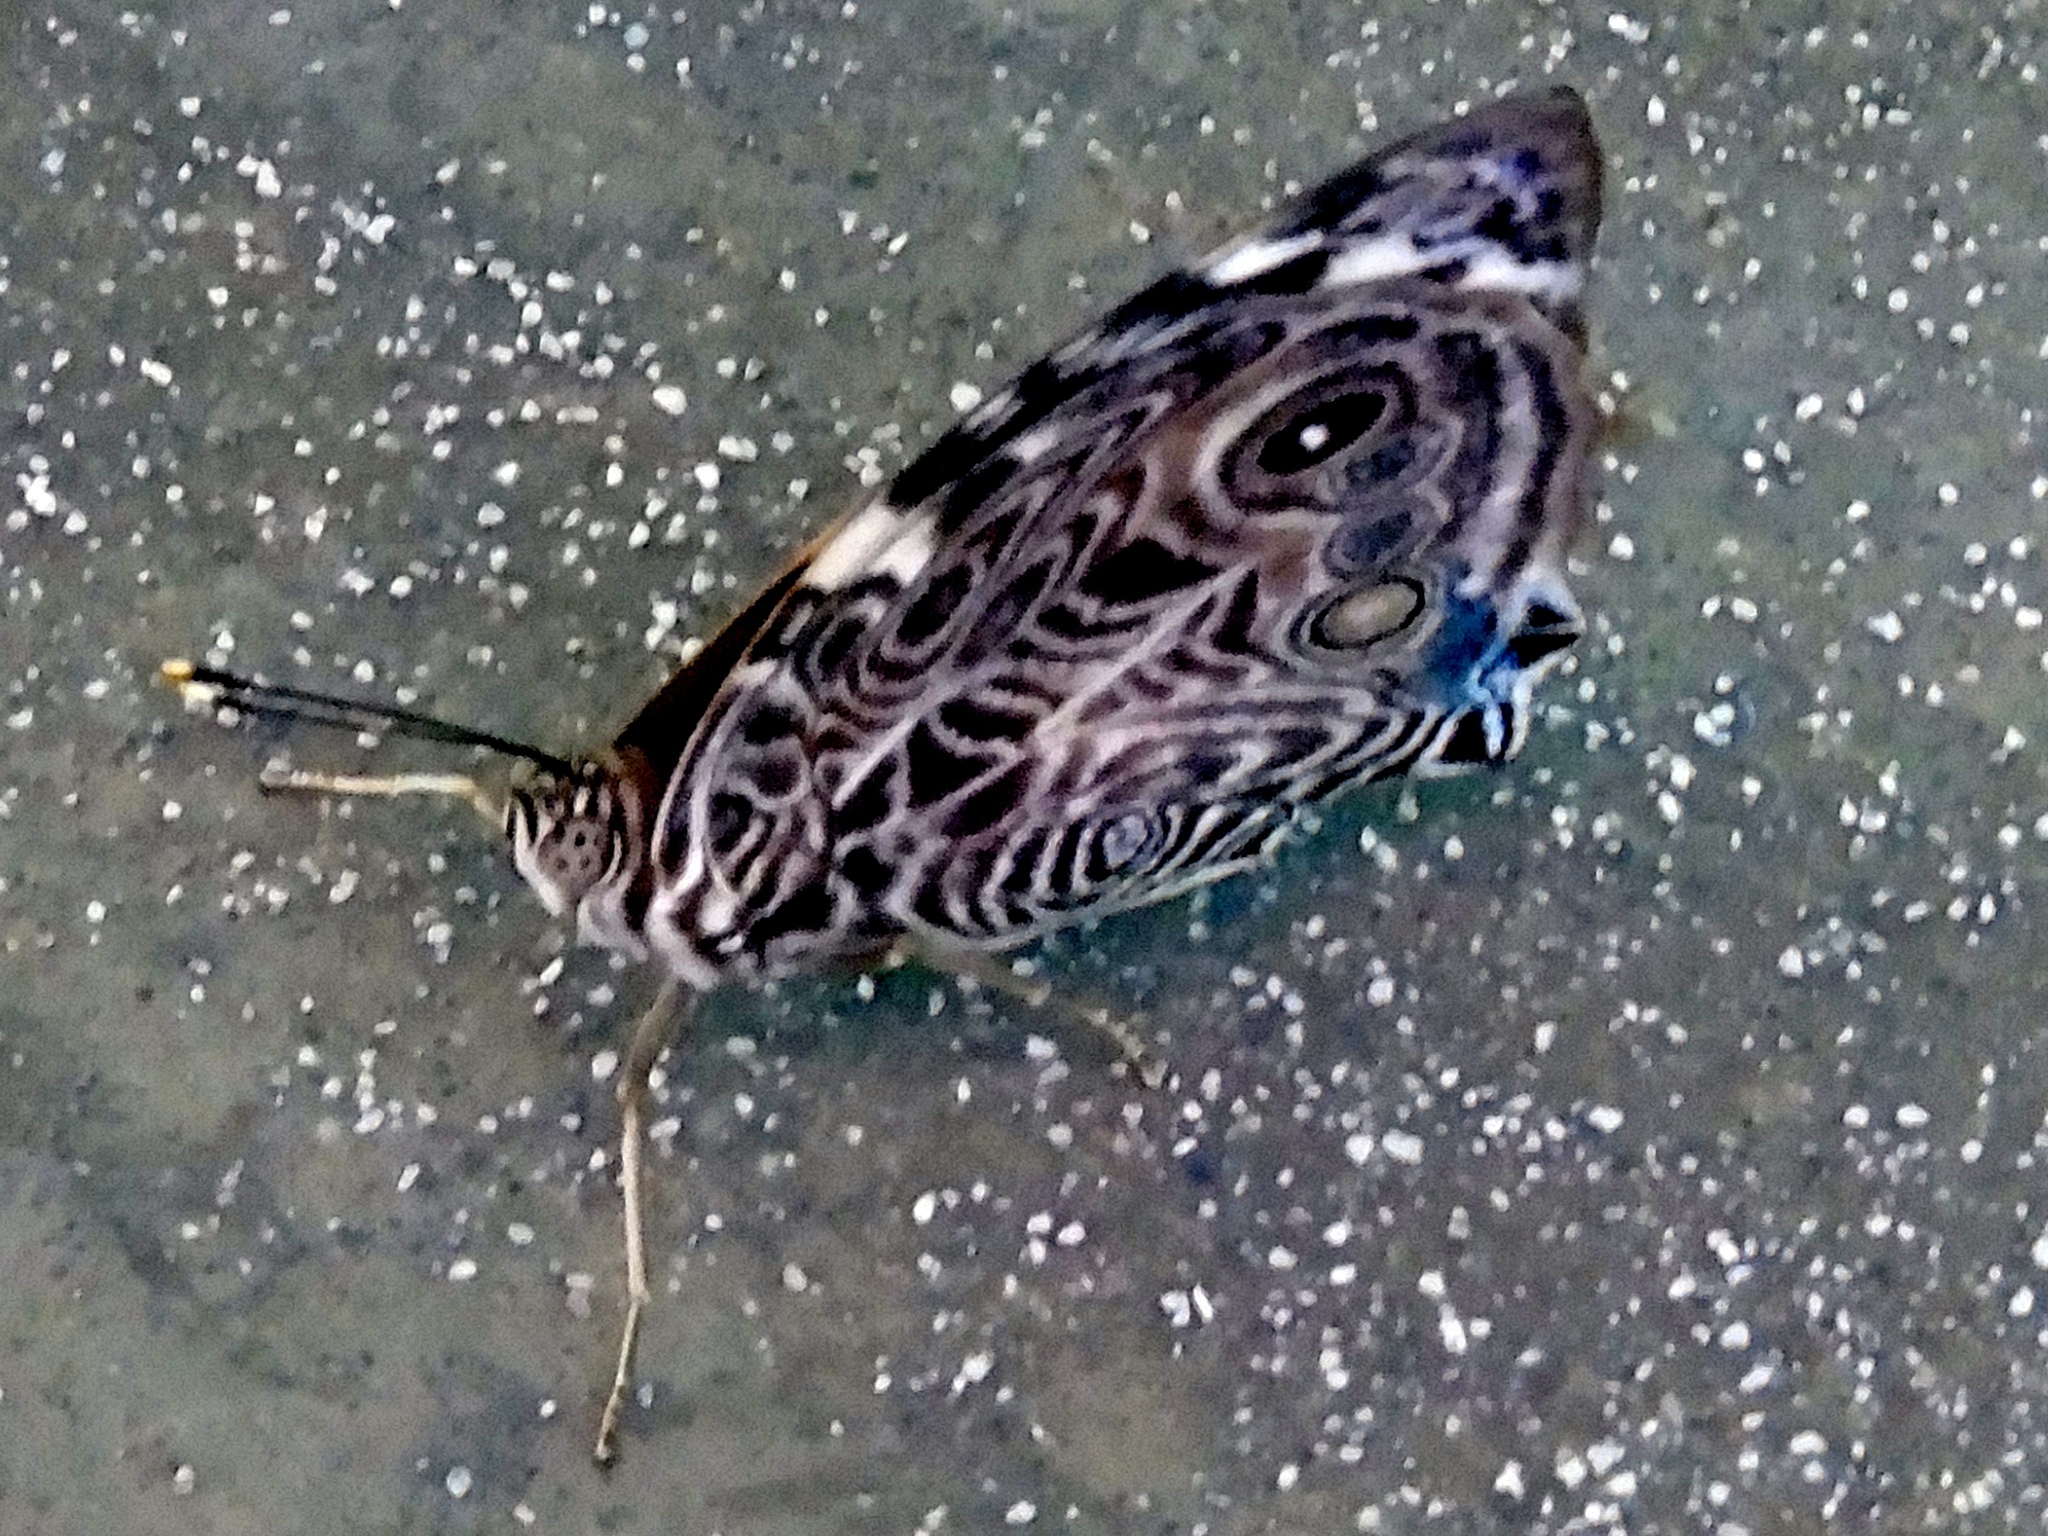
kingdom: Animalia
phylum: Arthropoda
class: Insecta
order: Lepidoptera
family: Nymphalidae
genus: Smyrna
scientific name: Smyrna blomfildia
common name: Blomfild's beauty
